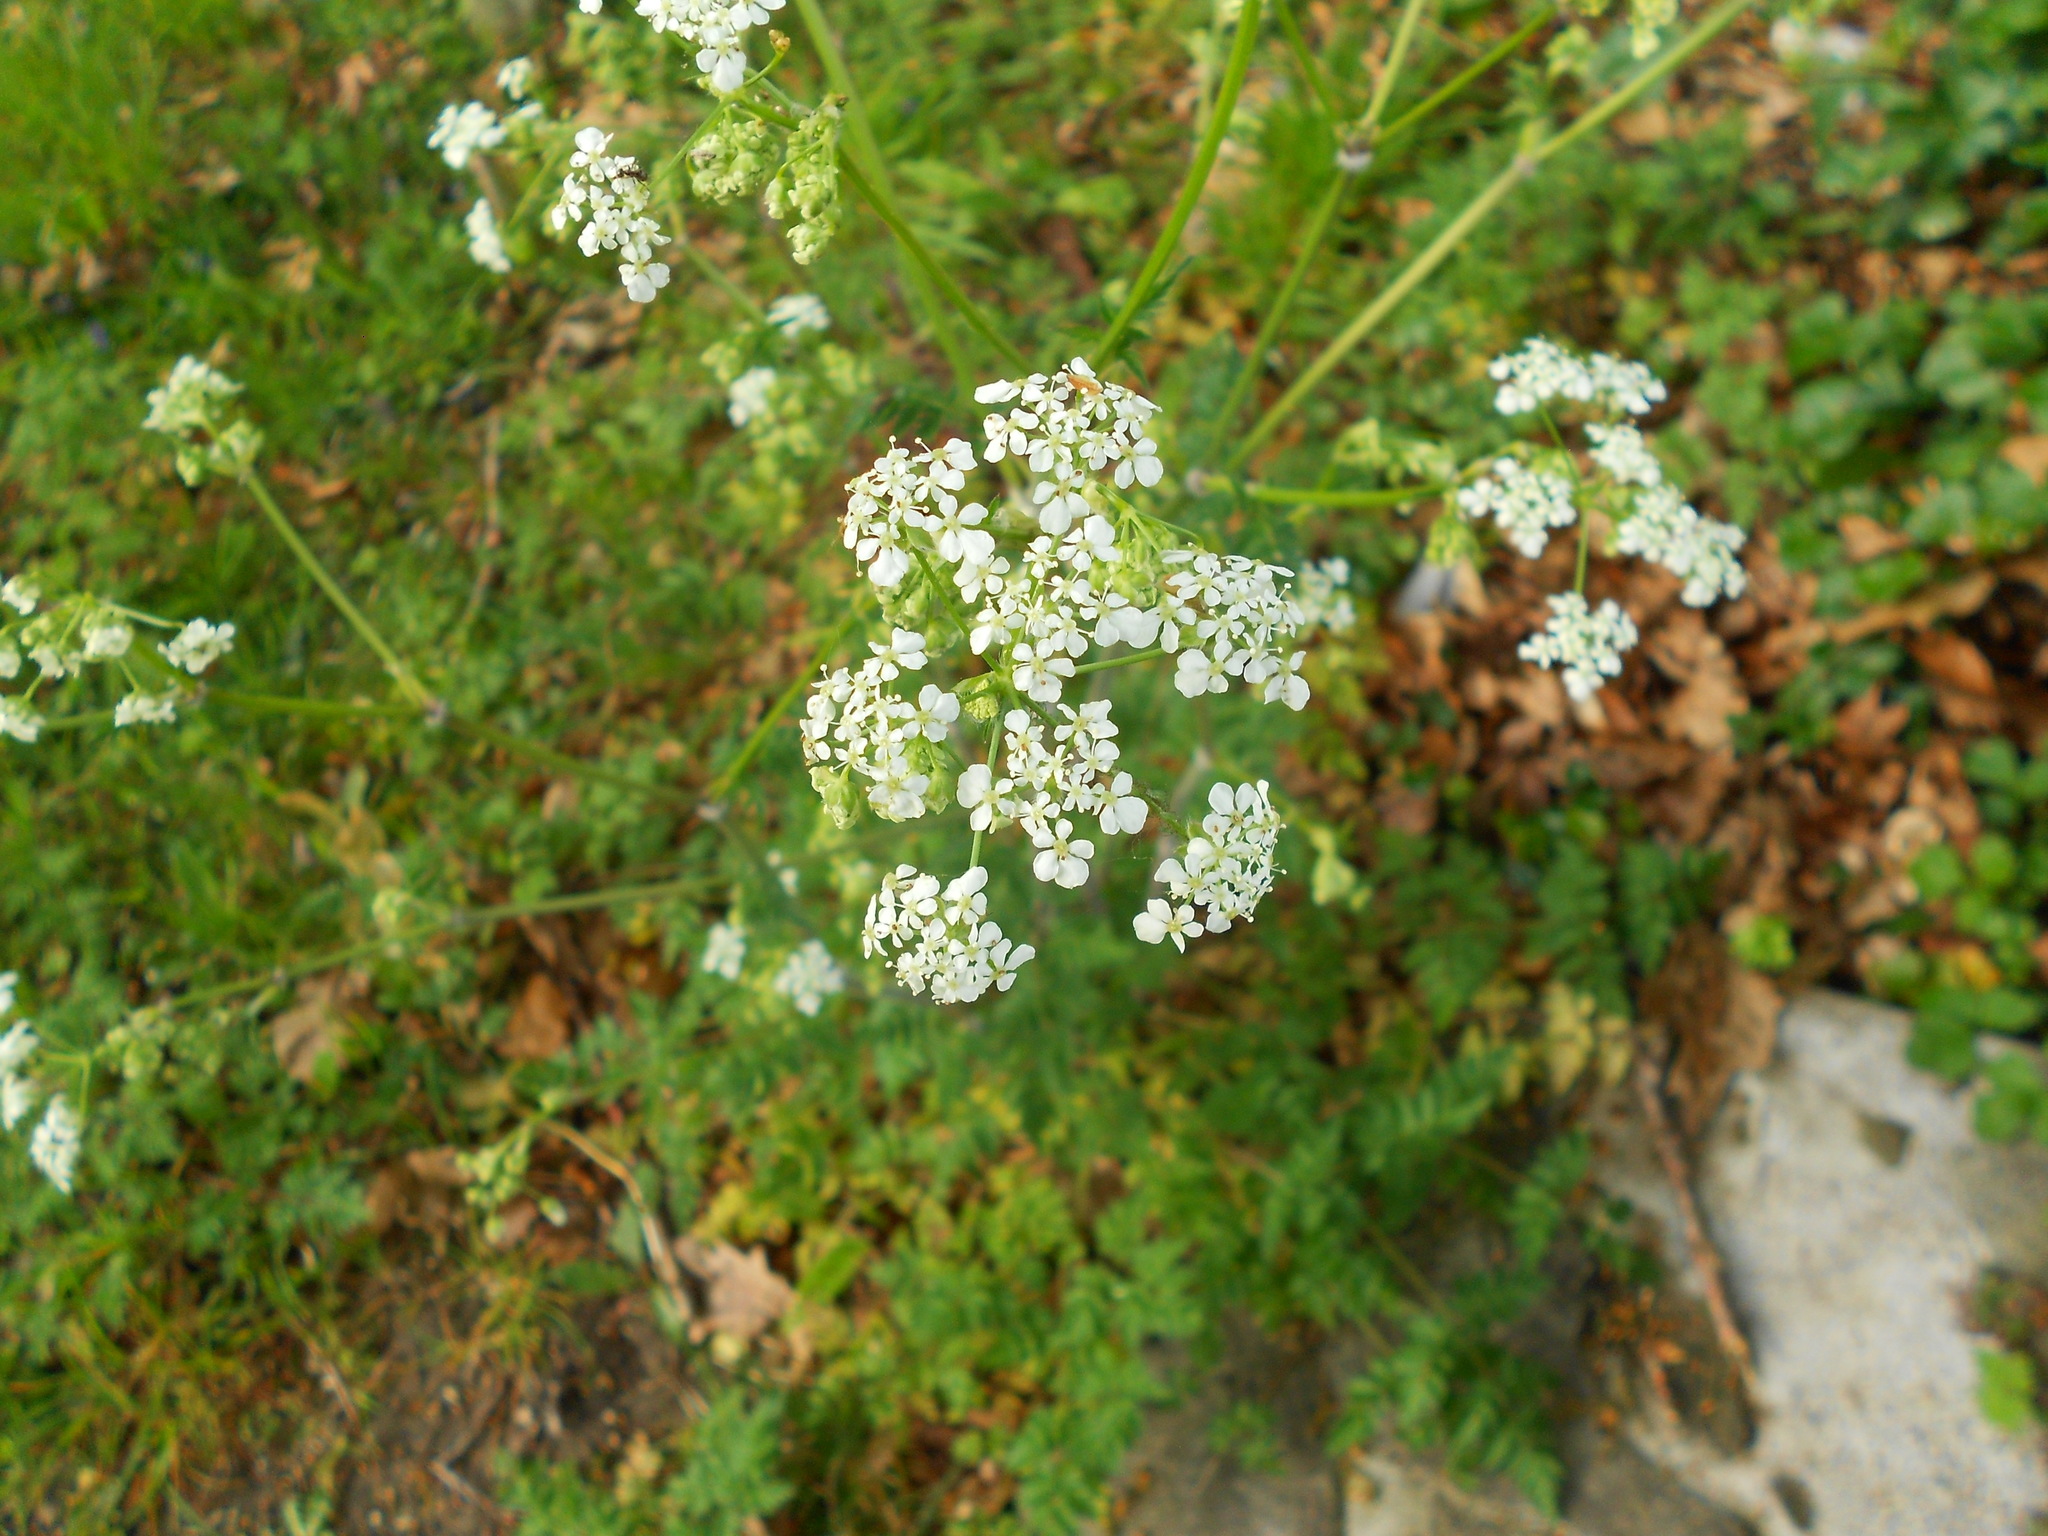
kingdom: Plantae
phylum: Tracheophyta
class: Magnoliopsida
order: Apiales
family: Apiaceae
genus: Anthriscus
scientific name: Anthriscus sylvestris
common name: Cow parsley
